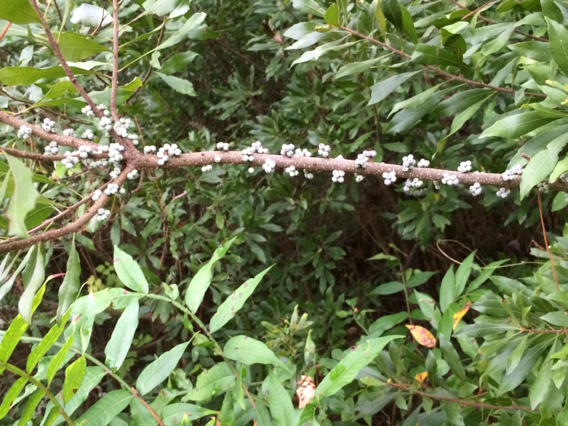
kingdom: Plantae
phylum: Tracheophyta
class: Magnoliopsida
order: Fagales
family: Myricaceae
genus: Morella
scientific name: Morella cerifera
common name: Wax myrtle
